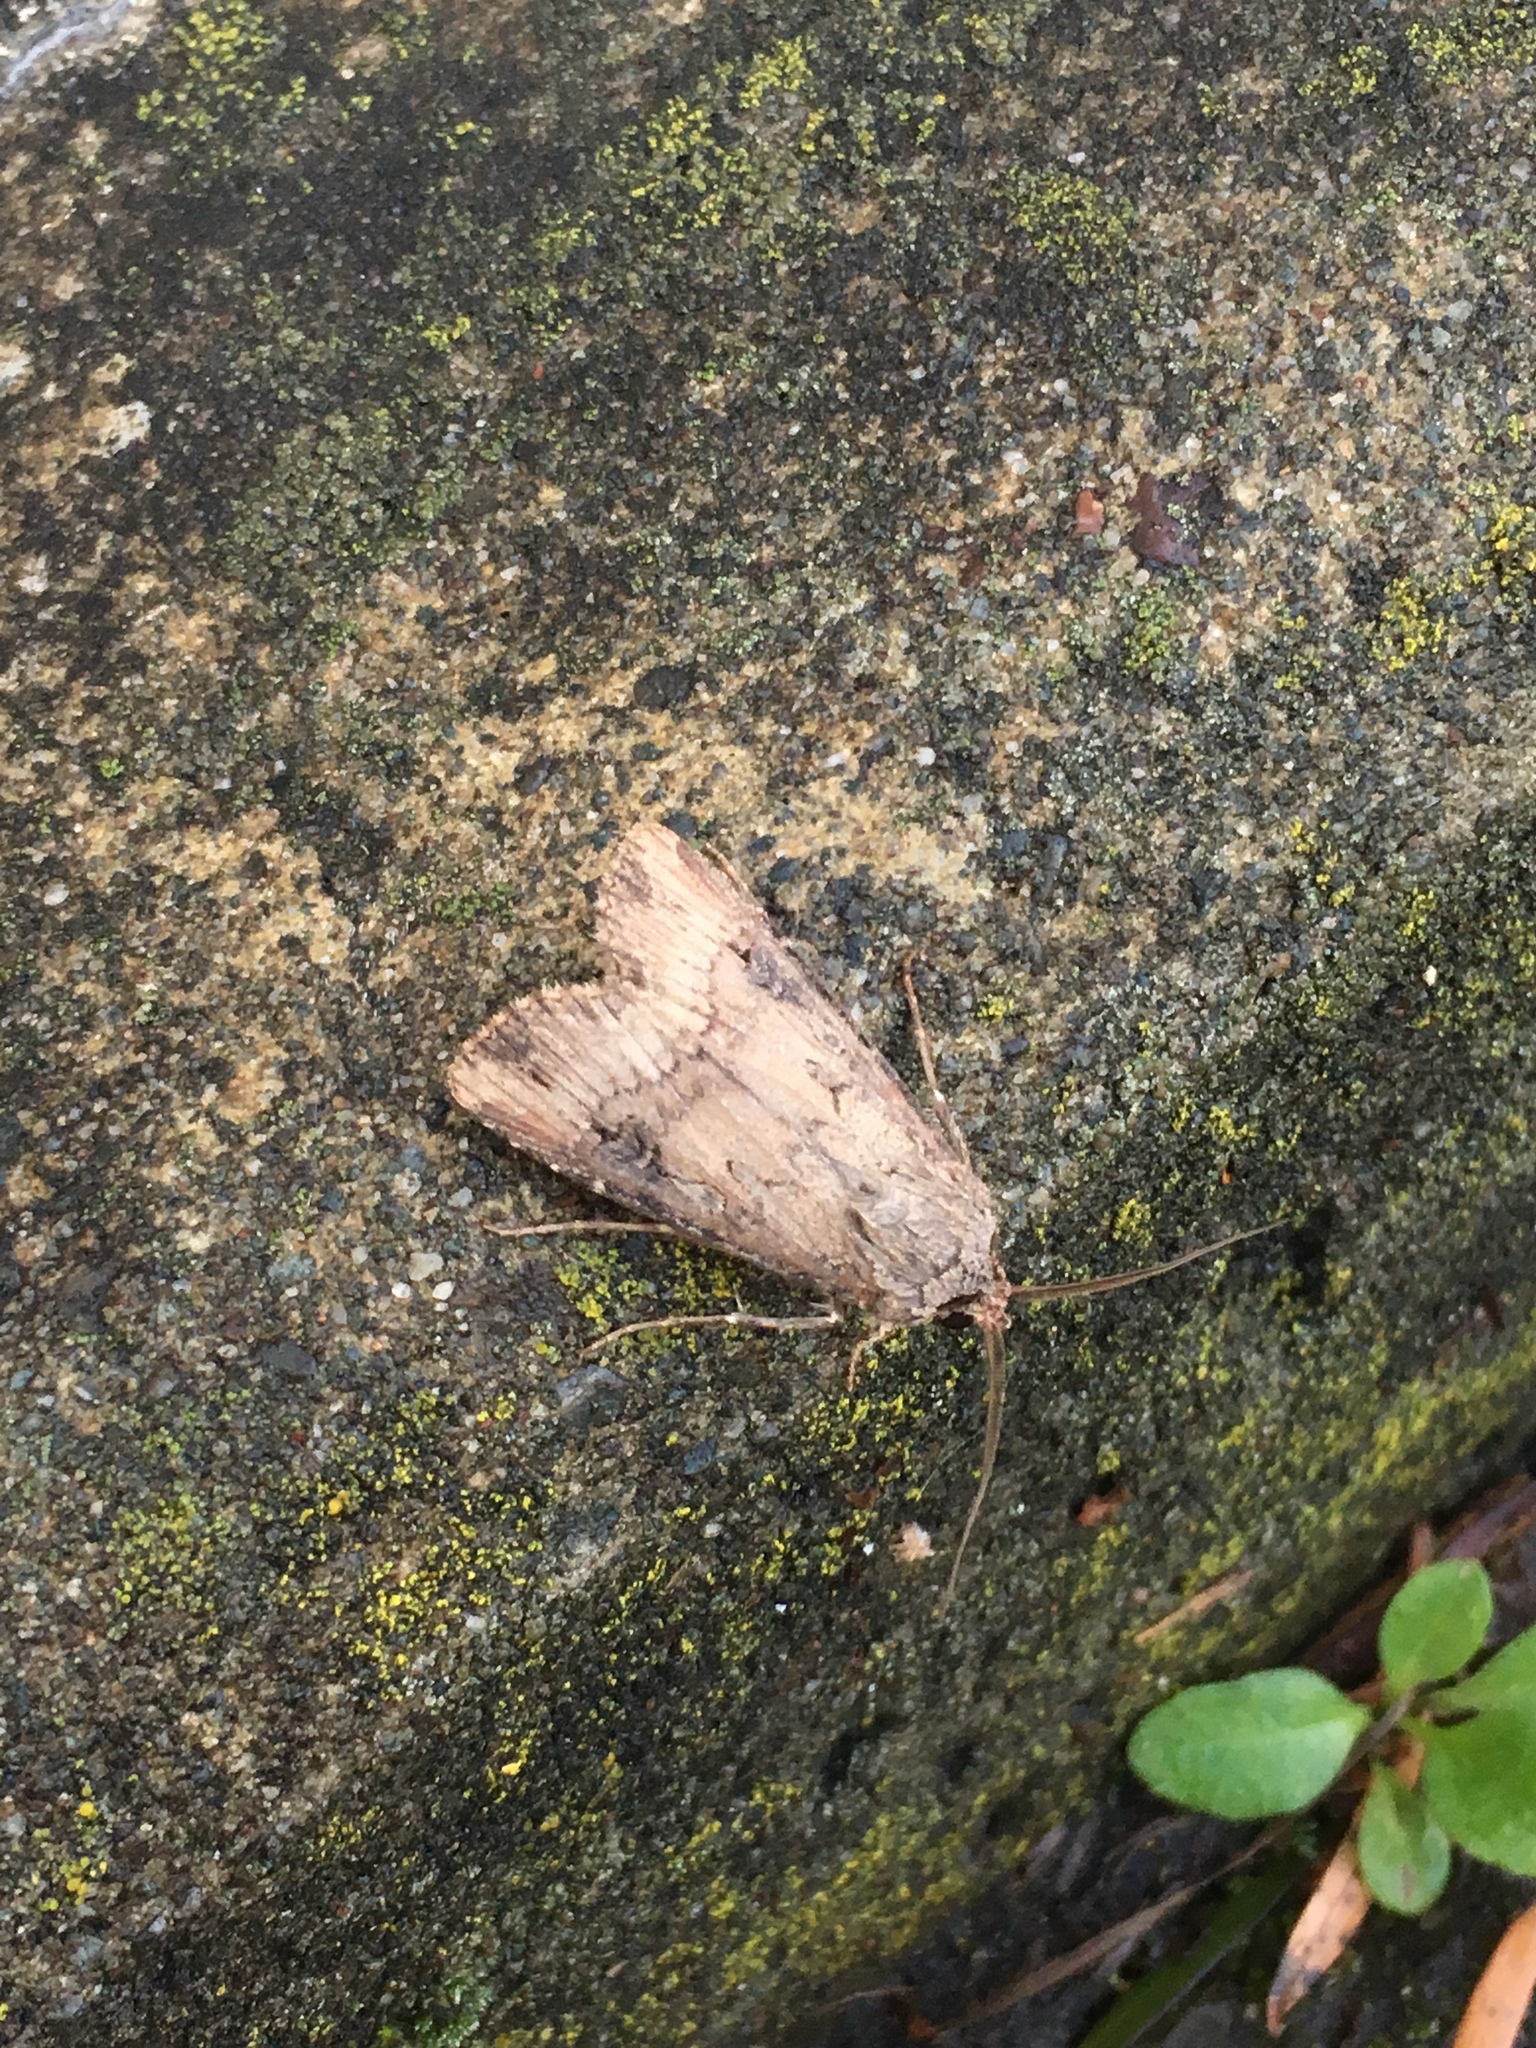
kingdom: Animalia
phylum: Arthropoda
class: Insecta
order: Lepidoptera
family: Noctuidae
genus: Agrotis
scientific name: Agrotis ipsilon
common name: Dark sword-grass
